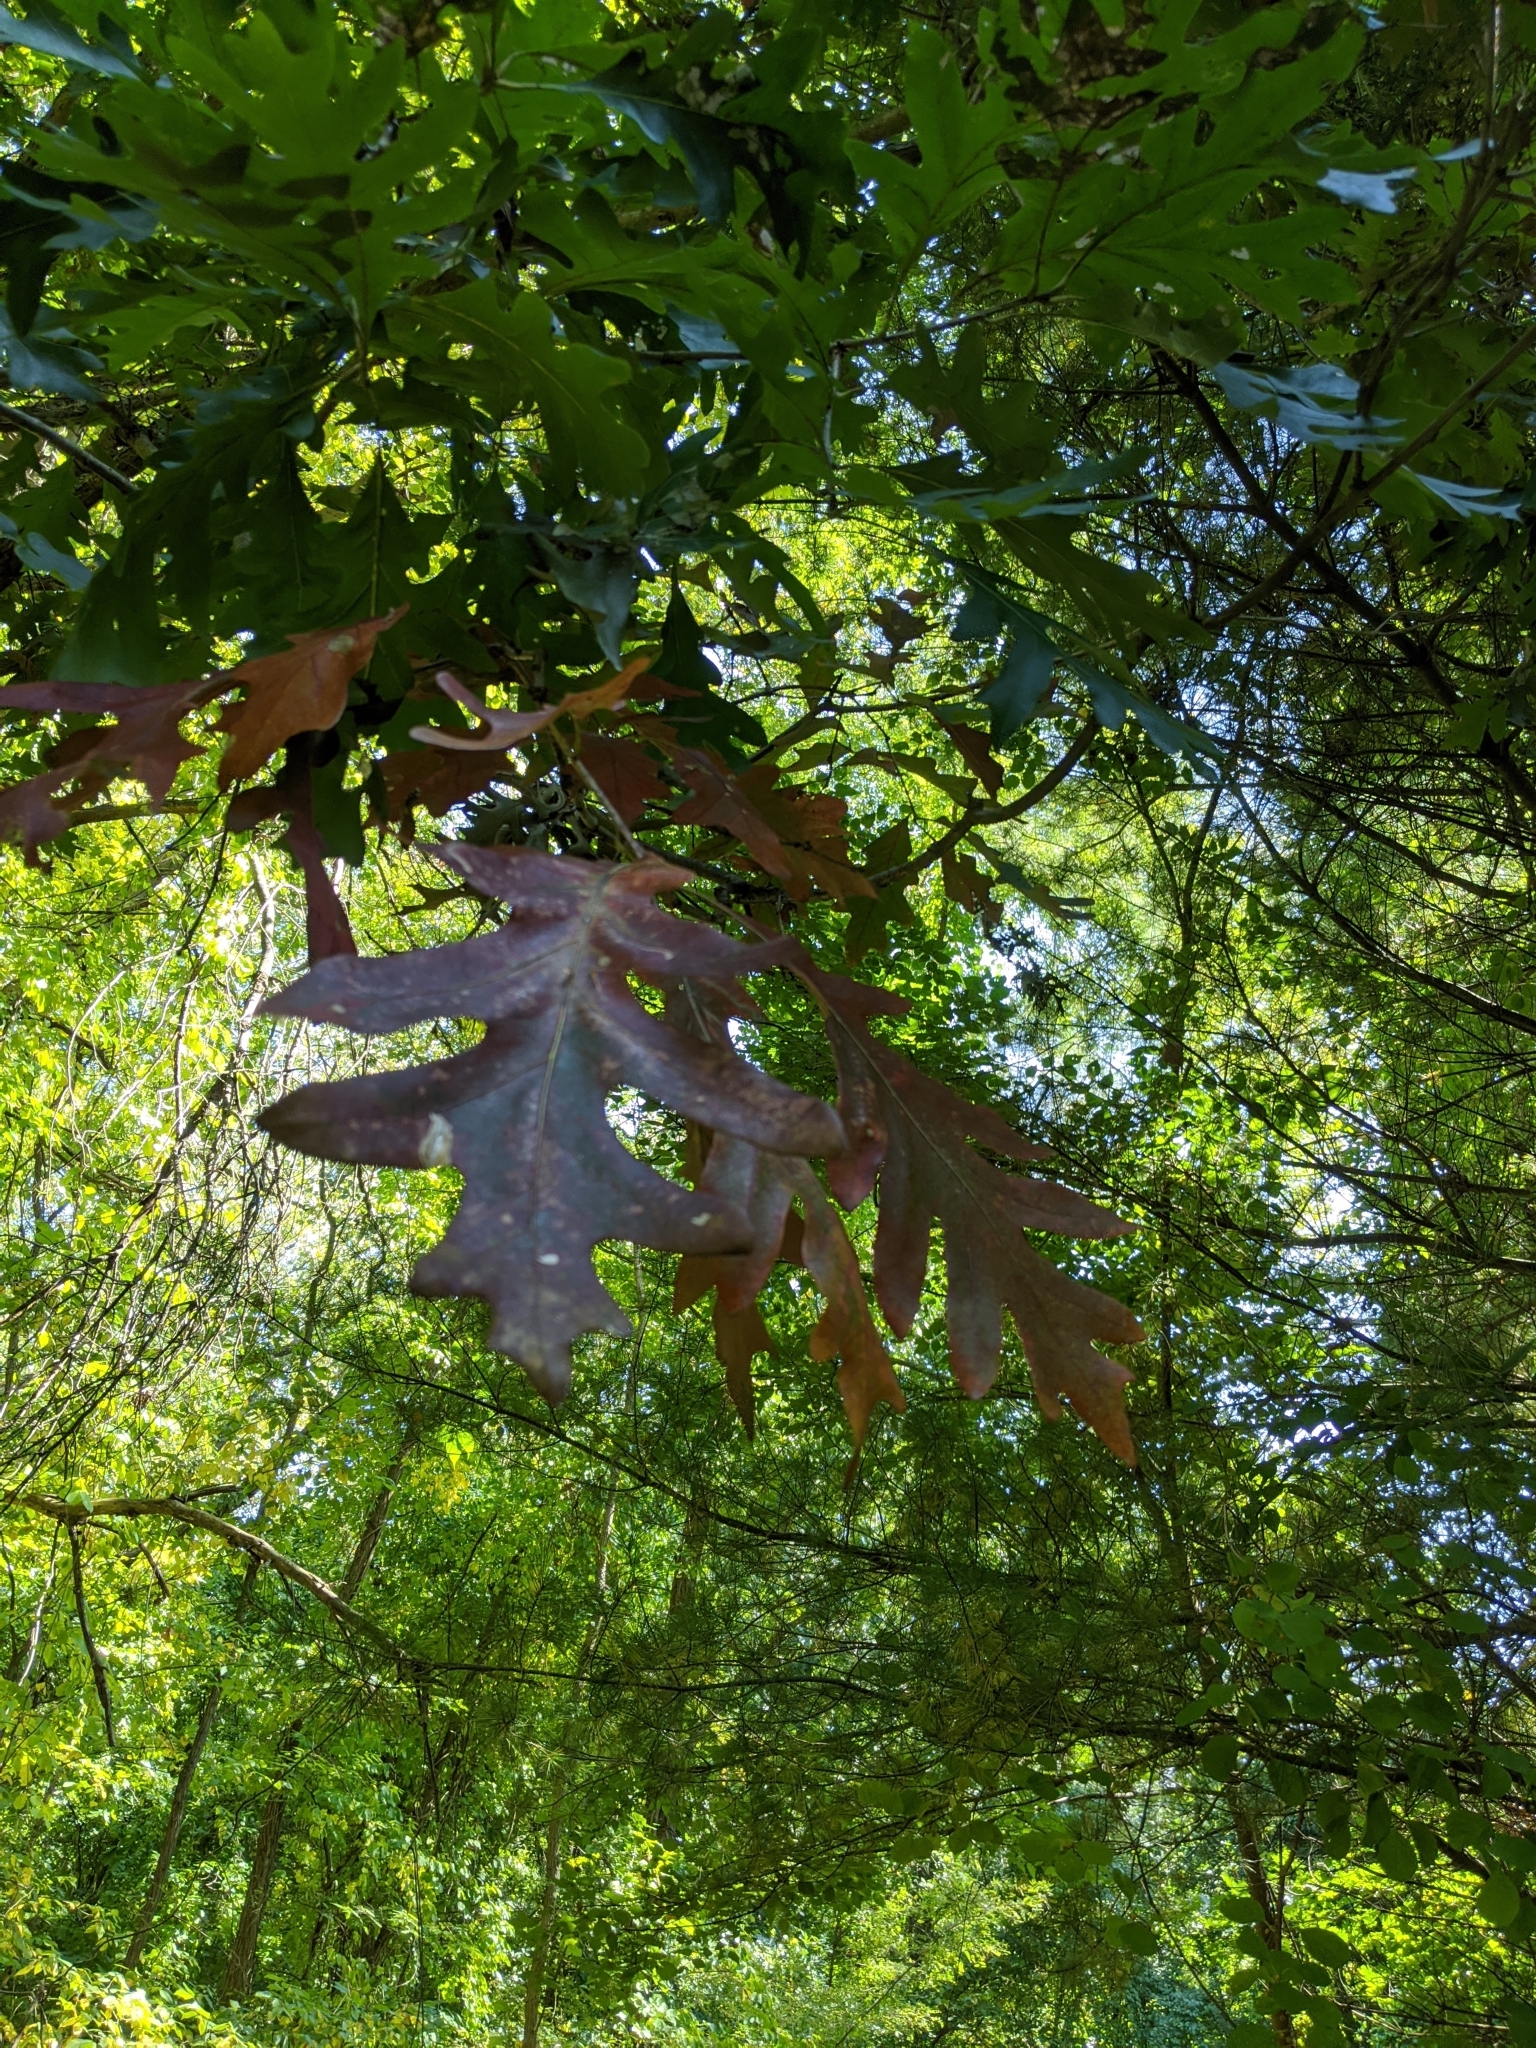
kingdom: Plantae
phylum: Tracheophyta
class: Magnoliopsida
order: Fagales
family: Fagaceae
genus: Quercus
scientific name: Quercus alba
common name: White oak
